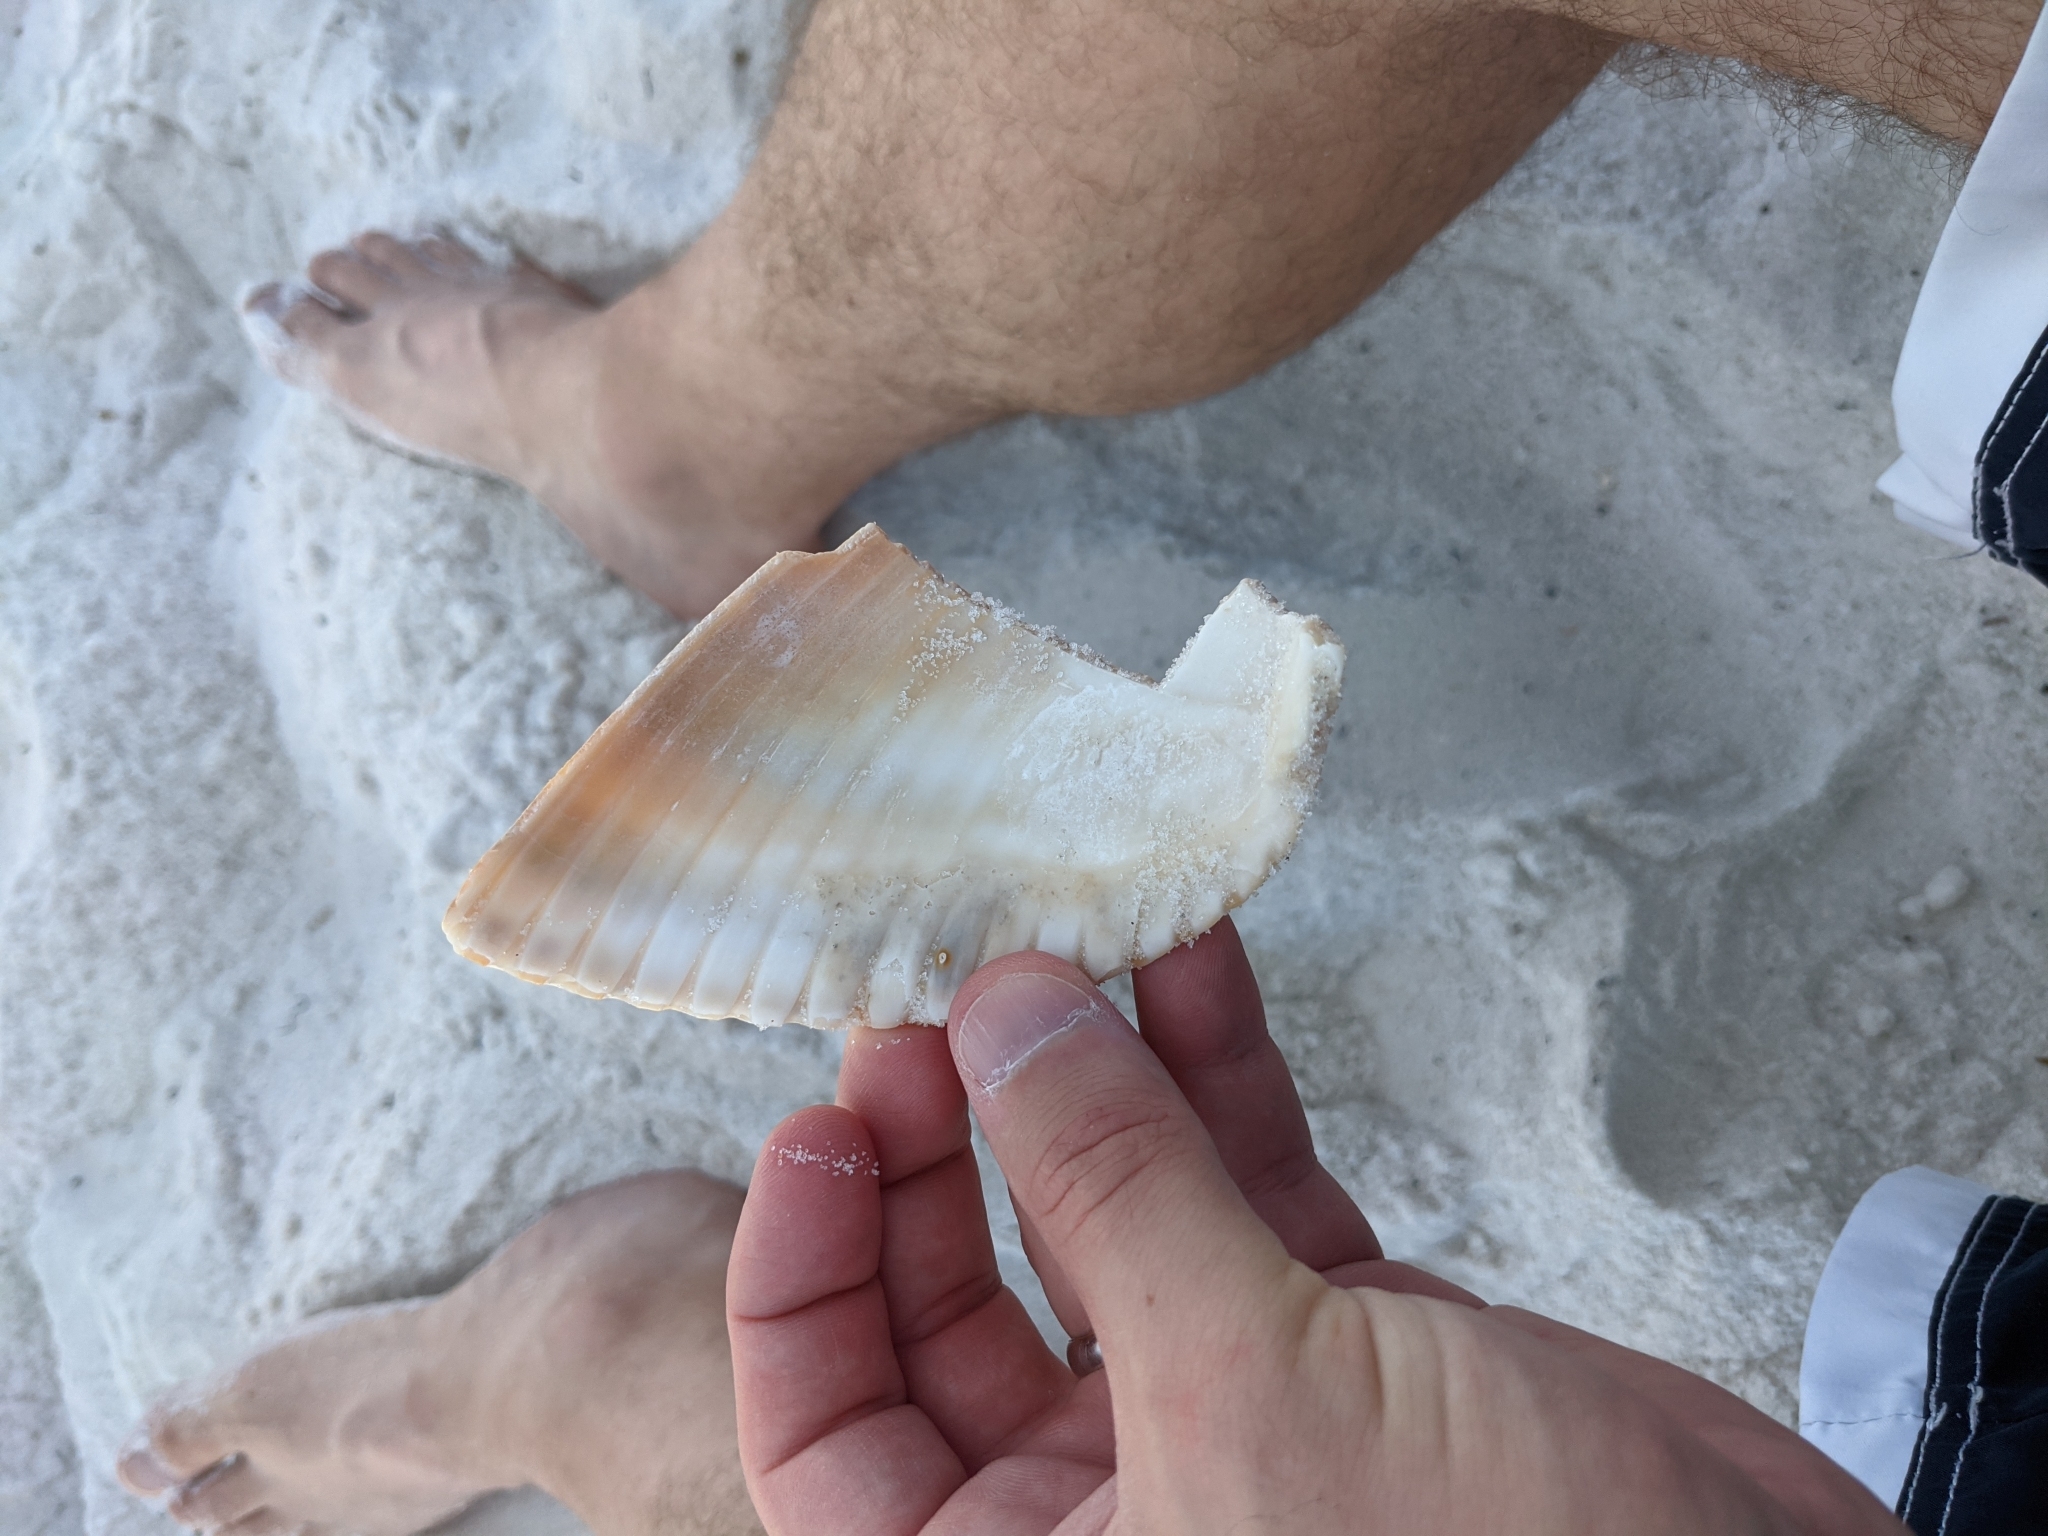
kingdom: Animalia
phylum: Mollusca
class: Bivalvia
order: Cardiida
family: Cardiidae
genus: Dinocardium
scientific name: Dinocardium robustum
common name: Atlantic giant cockle
